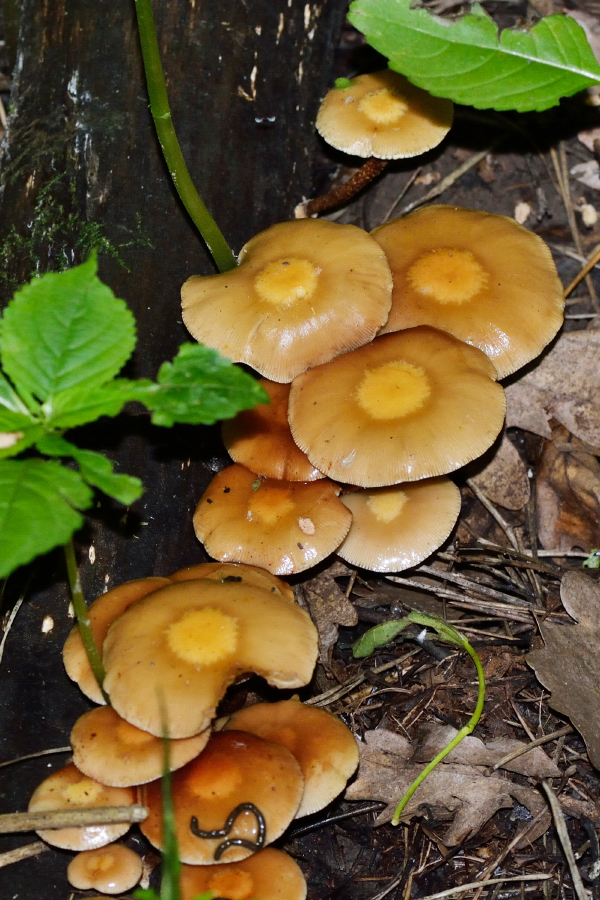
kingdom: Fungi
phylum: Basidiomycota
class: Agaricomycetes
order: Agaricales
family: Strophariaceae
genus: Kuehneromyces
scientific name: Kuehneromyces mutabilis
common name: Sheathed woodtuft
